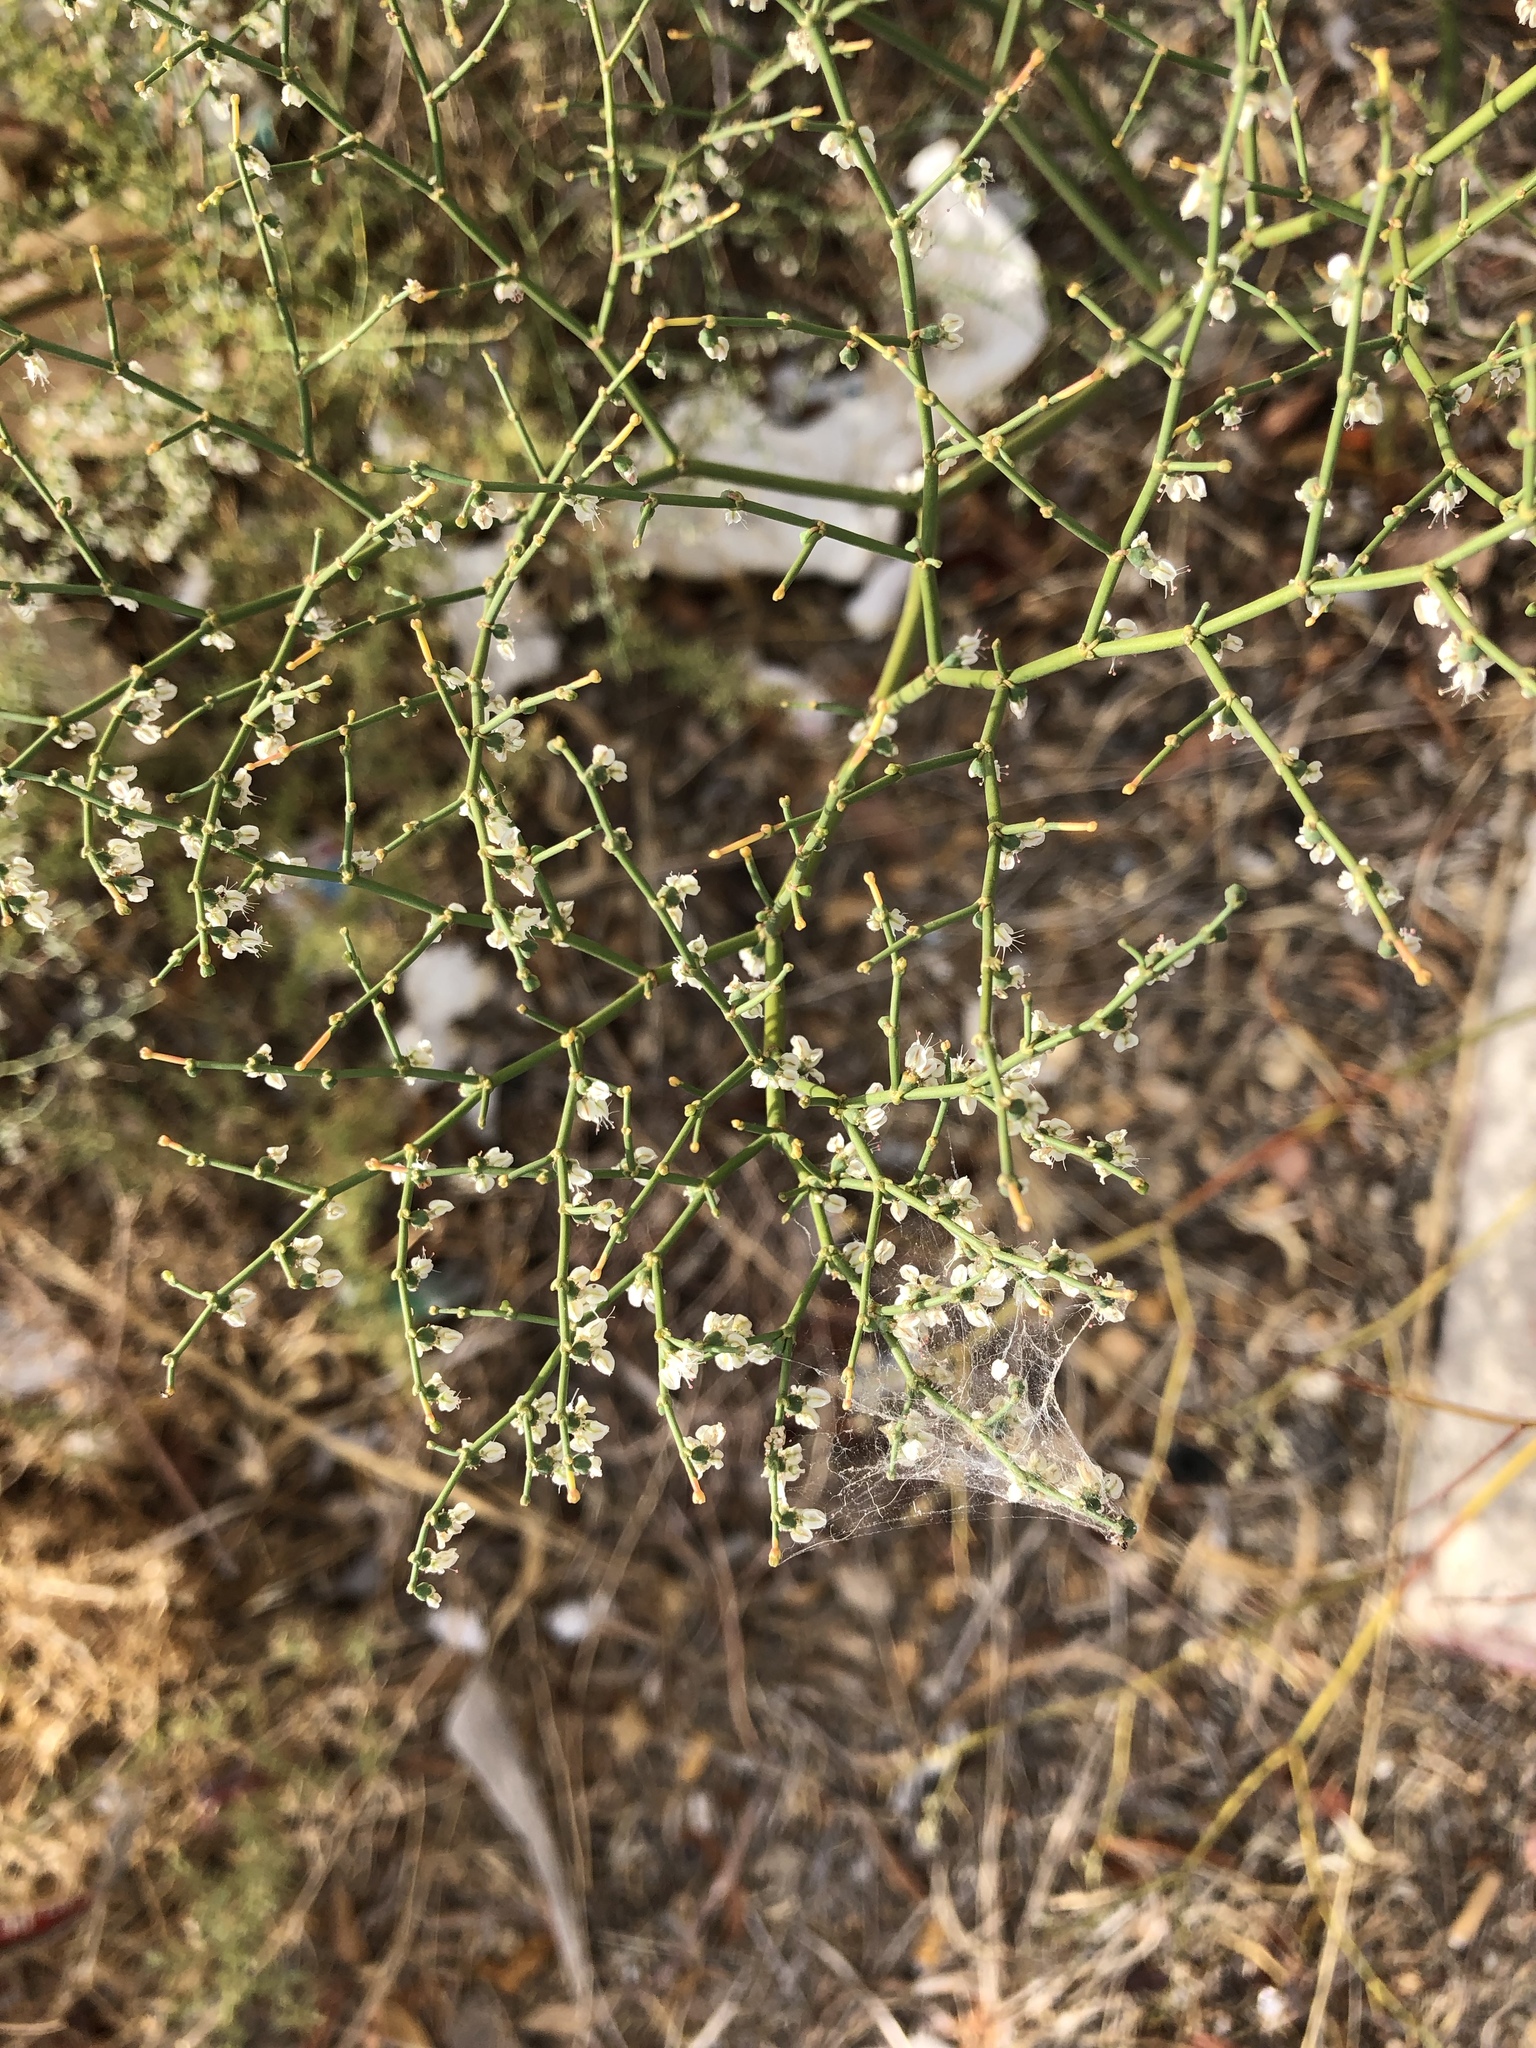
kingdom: Plantae
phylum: Tracheophyta
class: Magnoliopsida
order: Caryophyllales
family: Polygonaceae
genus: Eriogonum
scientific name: Eriogonum deflexum
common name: Skeleton-weed
